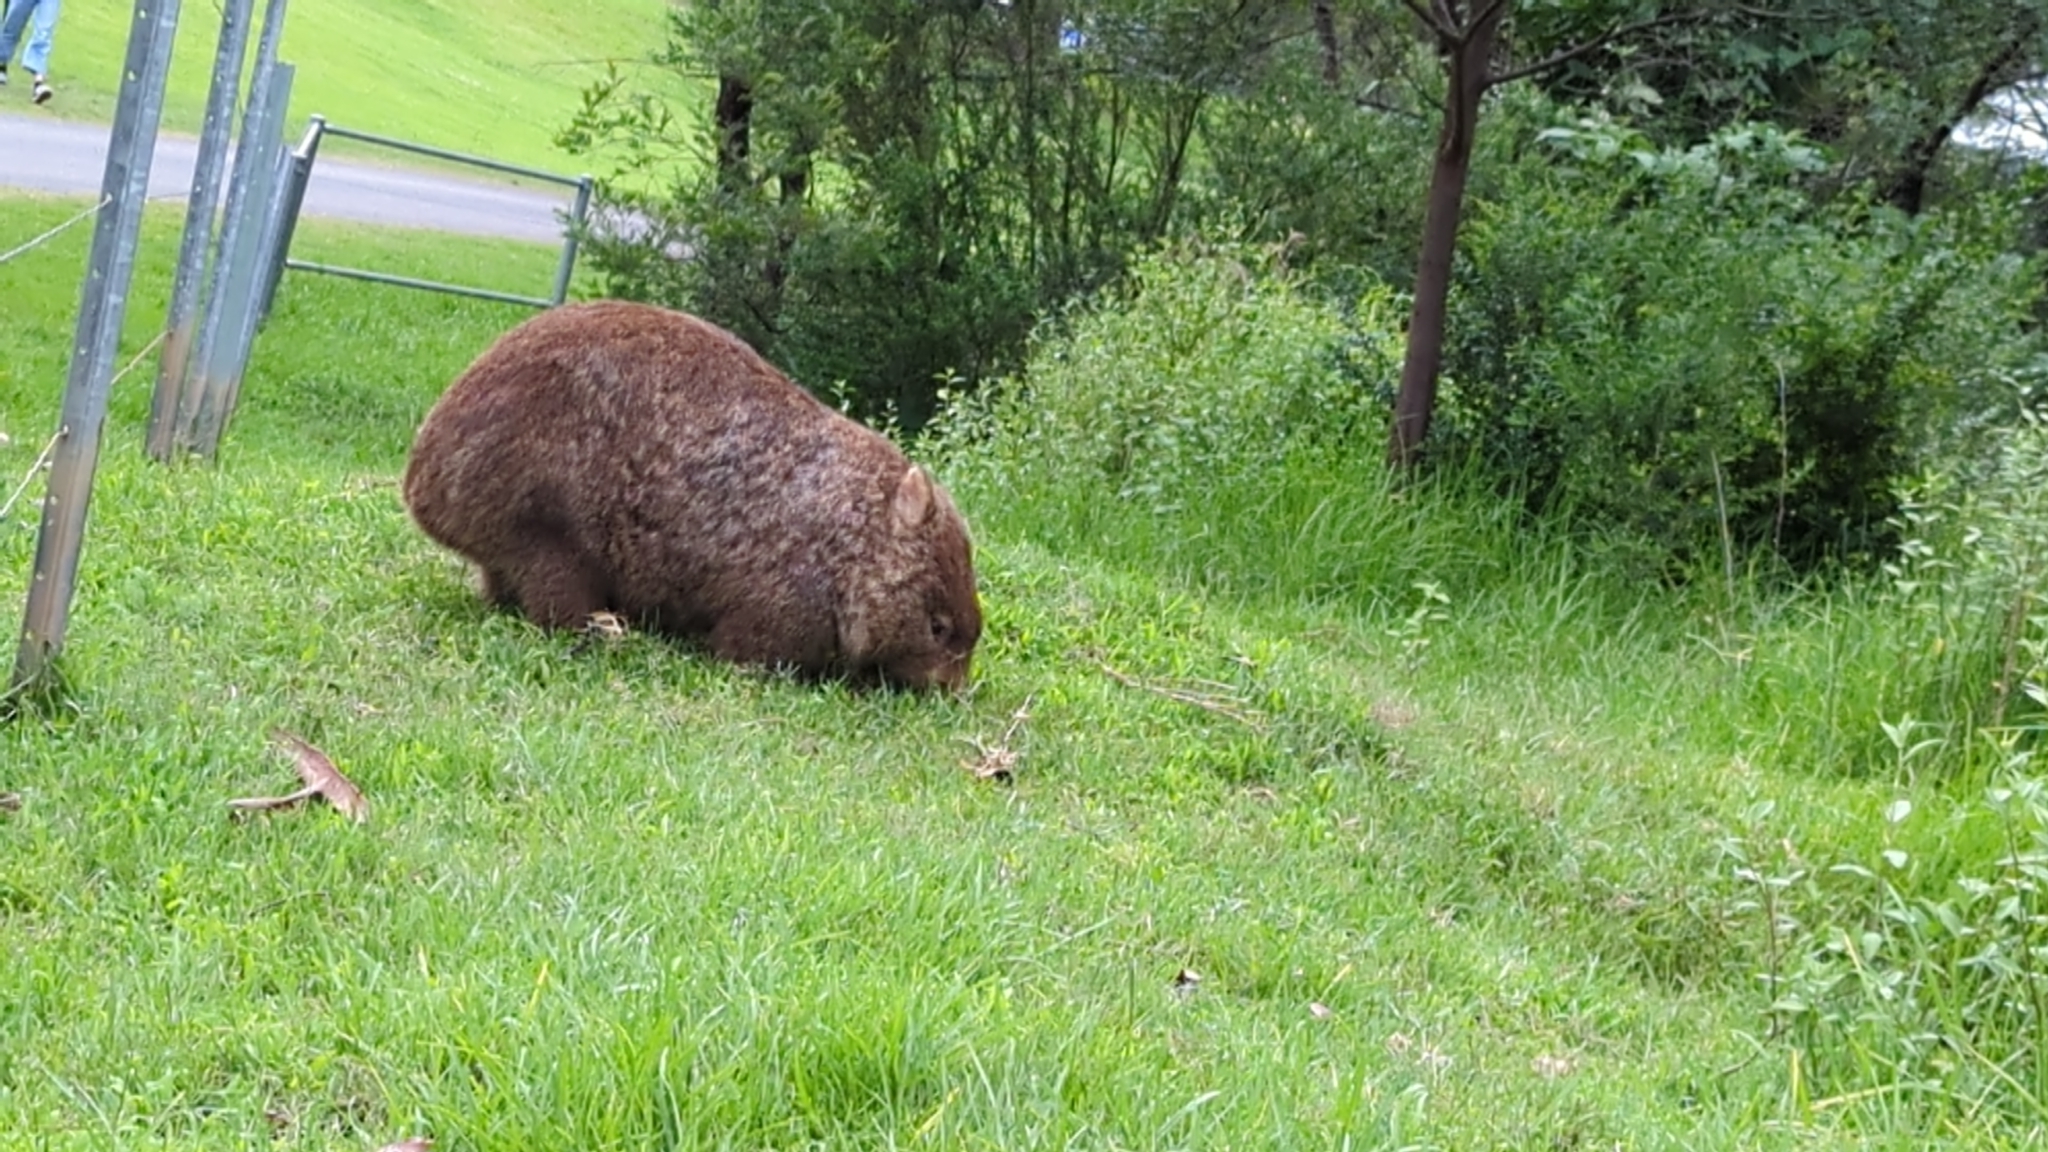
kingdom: Animalia
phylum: Chordata
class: Mammalia
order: Diprotodontia
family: Vombatidae
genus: Vombatus
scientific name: Vombatus ursinus
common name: Common wombat
